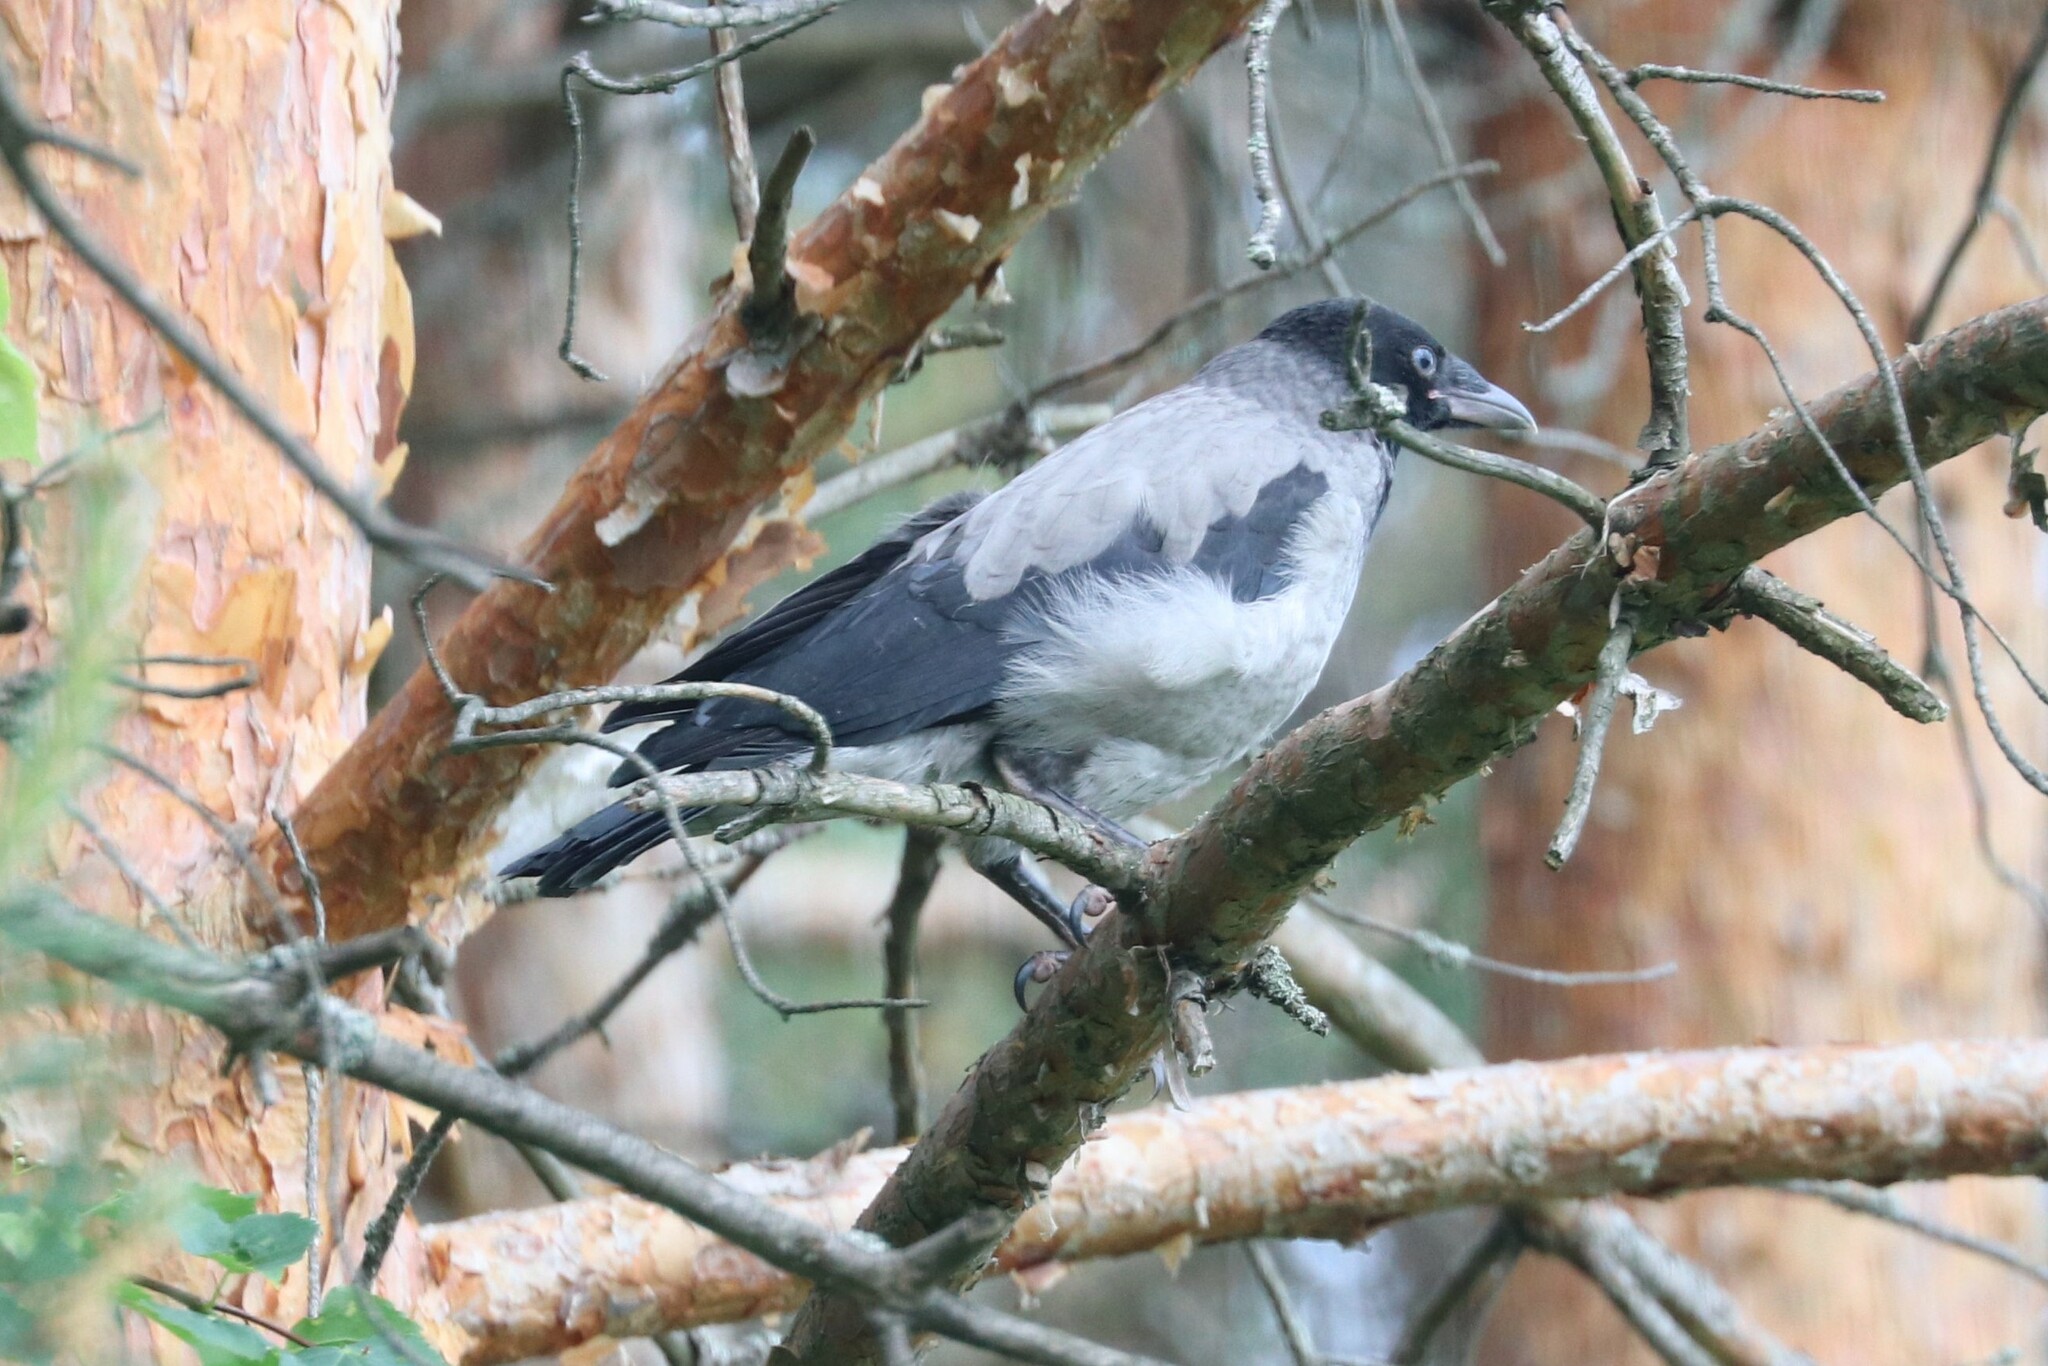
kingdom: Animalia
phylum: Chordata
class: Aves
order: Passeriformes
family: Corvidae
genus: Corvus
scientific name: Corvus cornix
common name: Hooded crow
